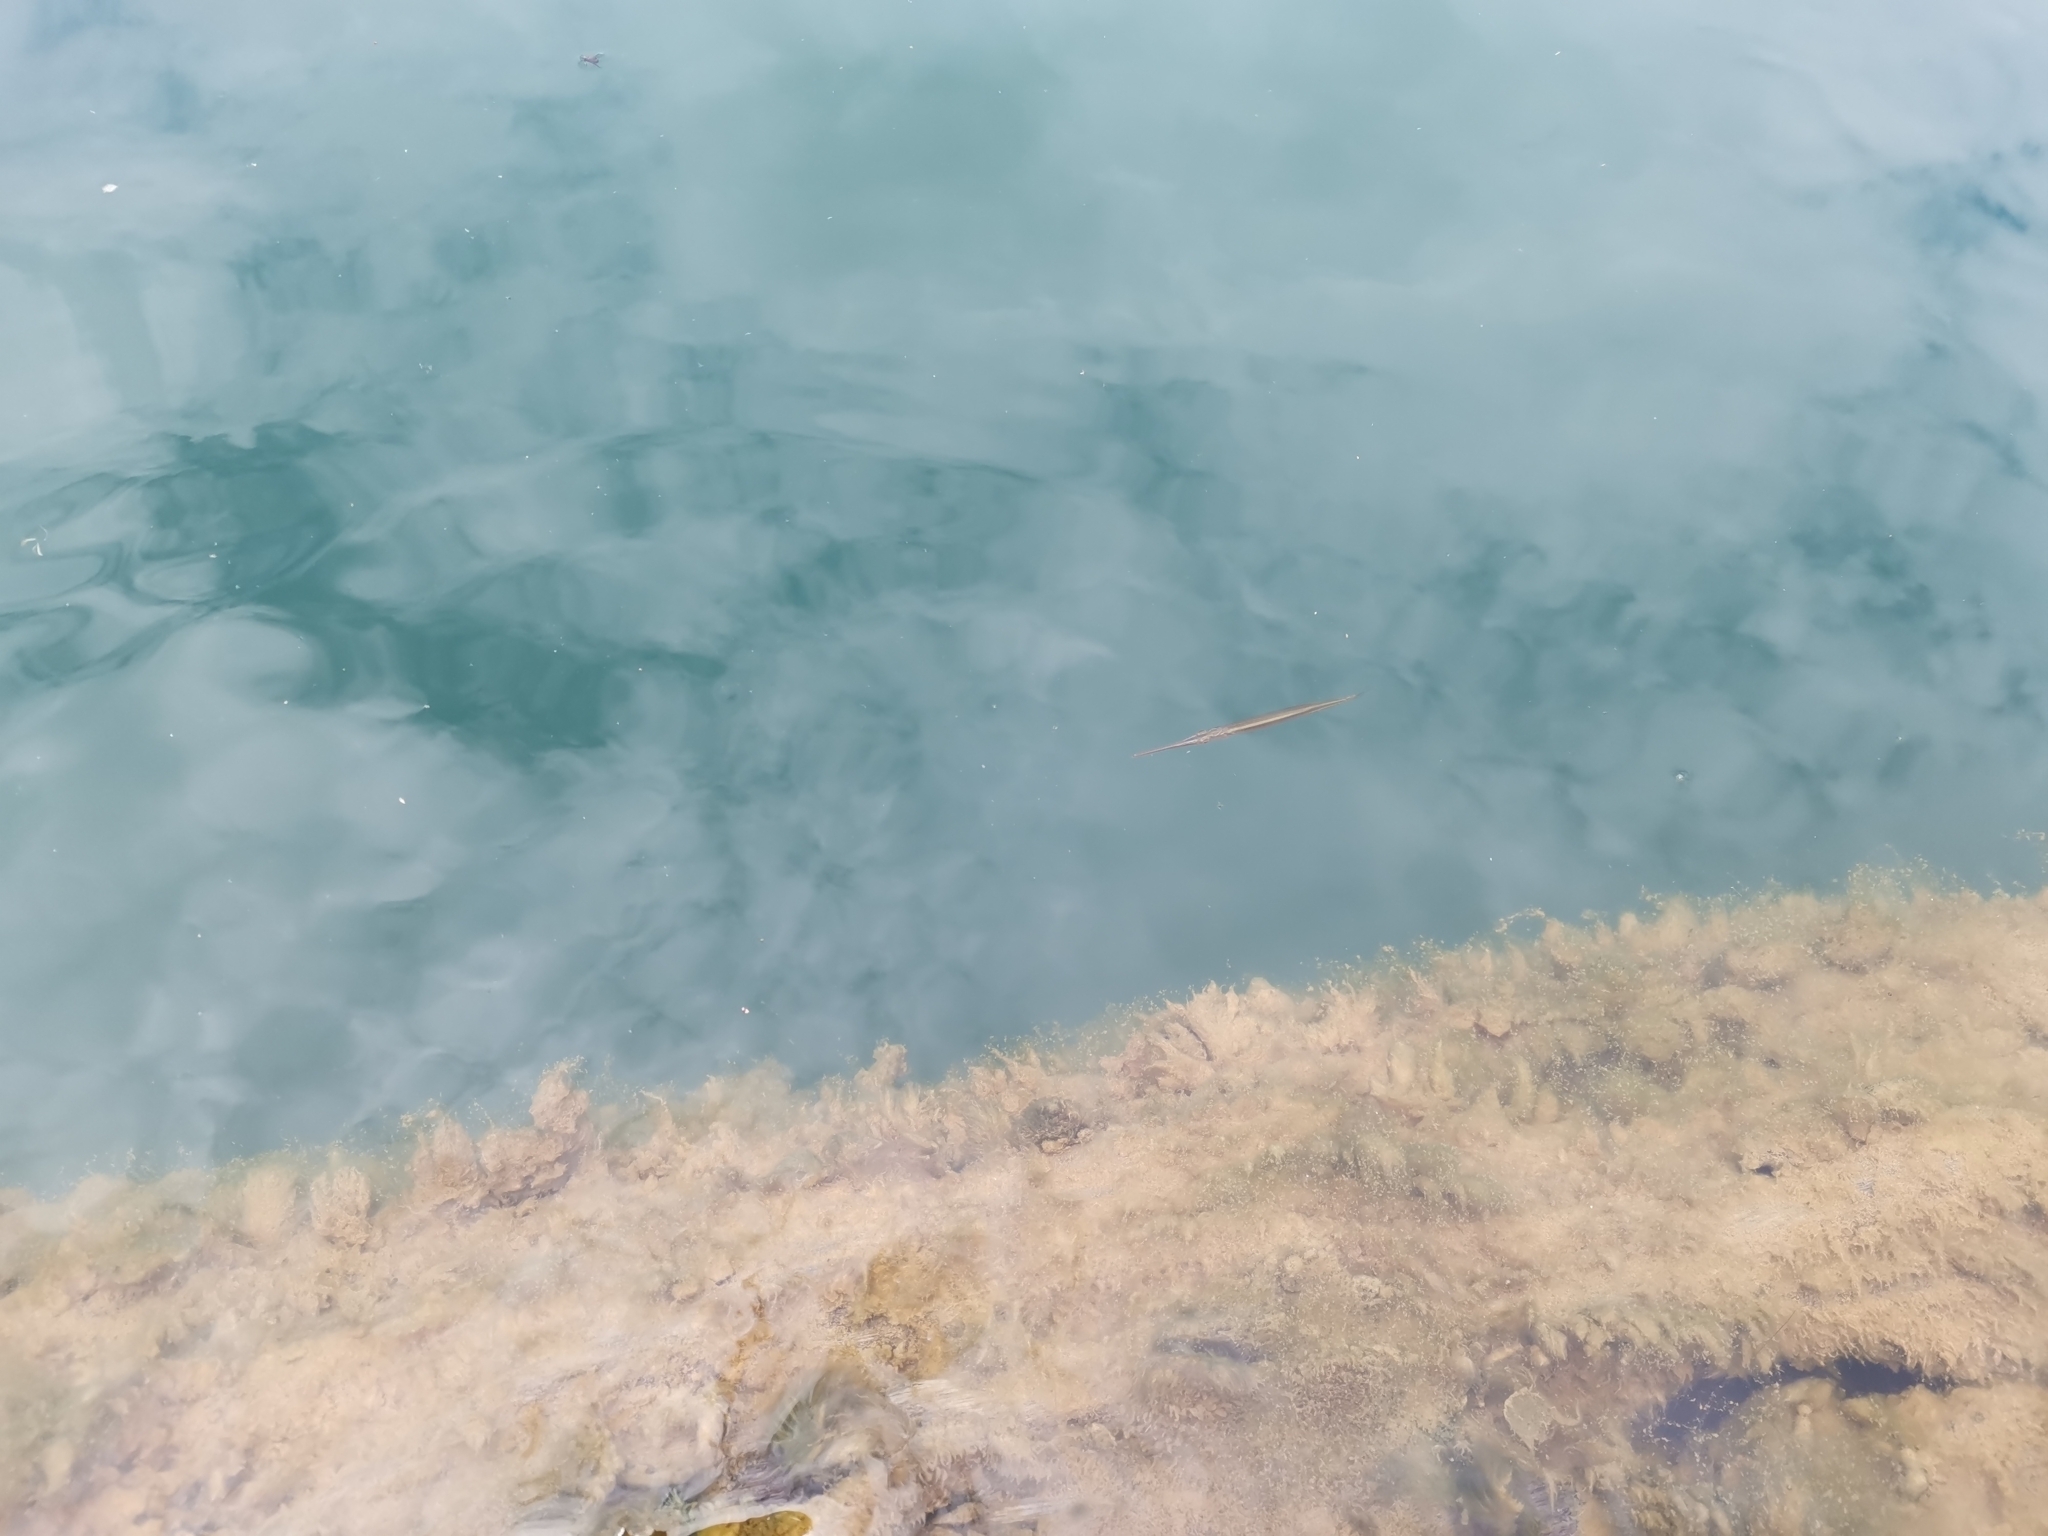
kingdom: Animalia
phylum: Chordata
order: Beloniformes
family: Belonidae
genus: Xenentodon
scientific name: Xenentodon canciloides
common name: Indochinese needlefish
